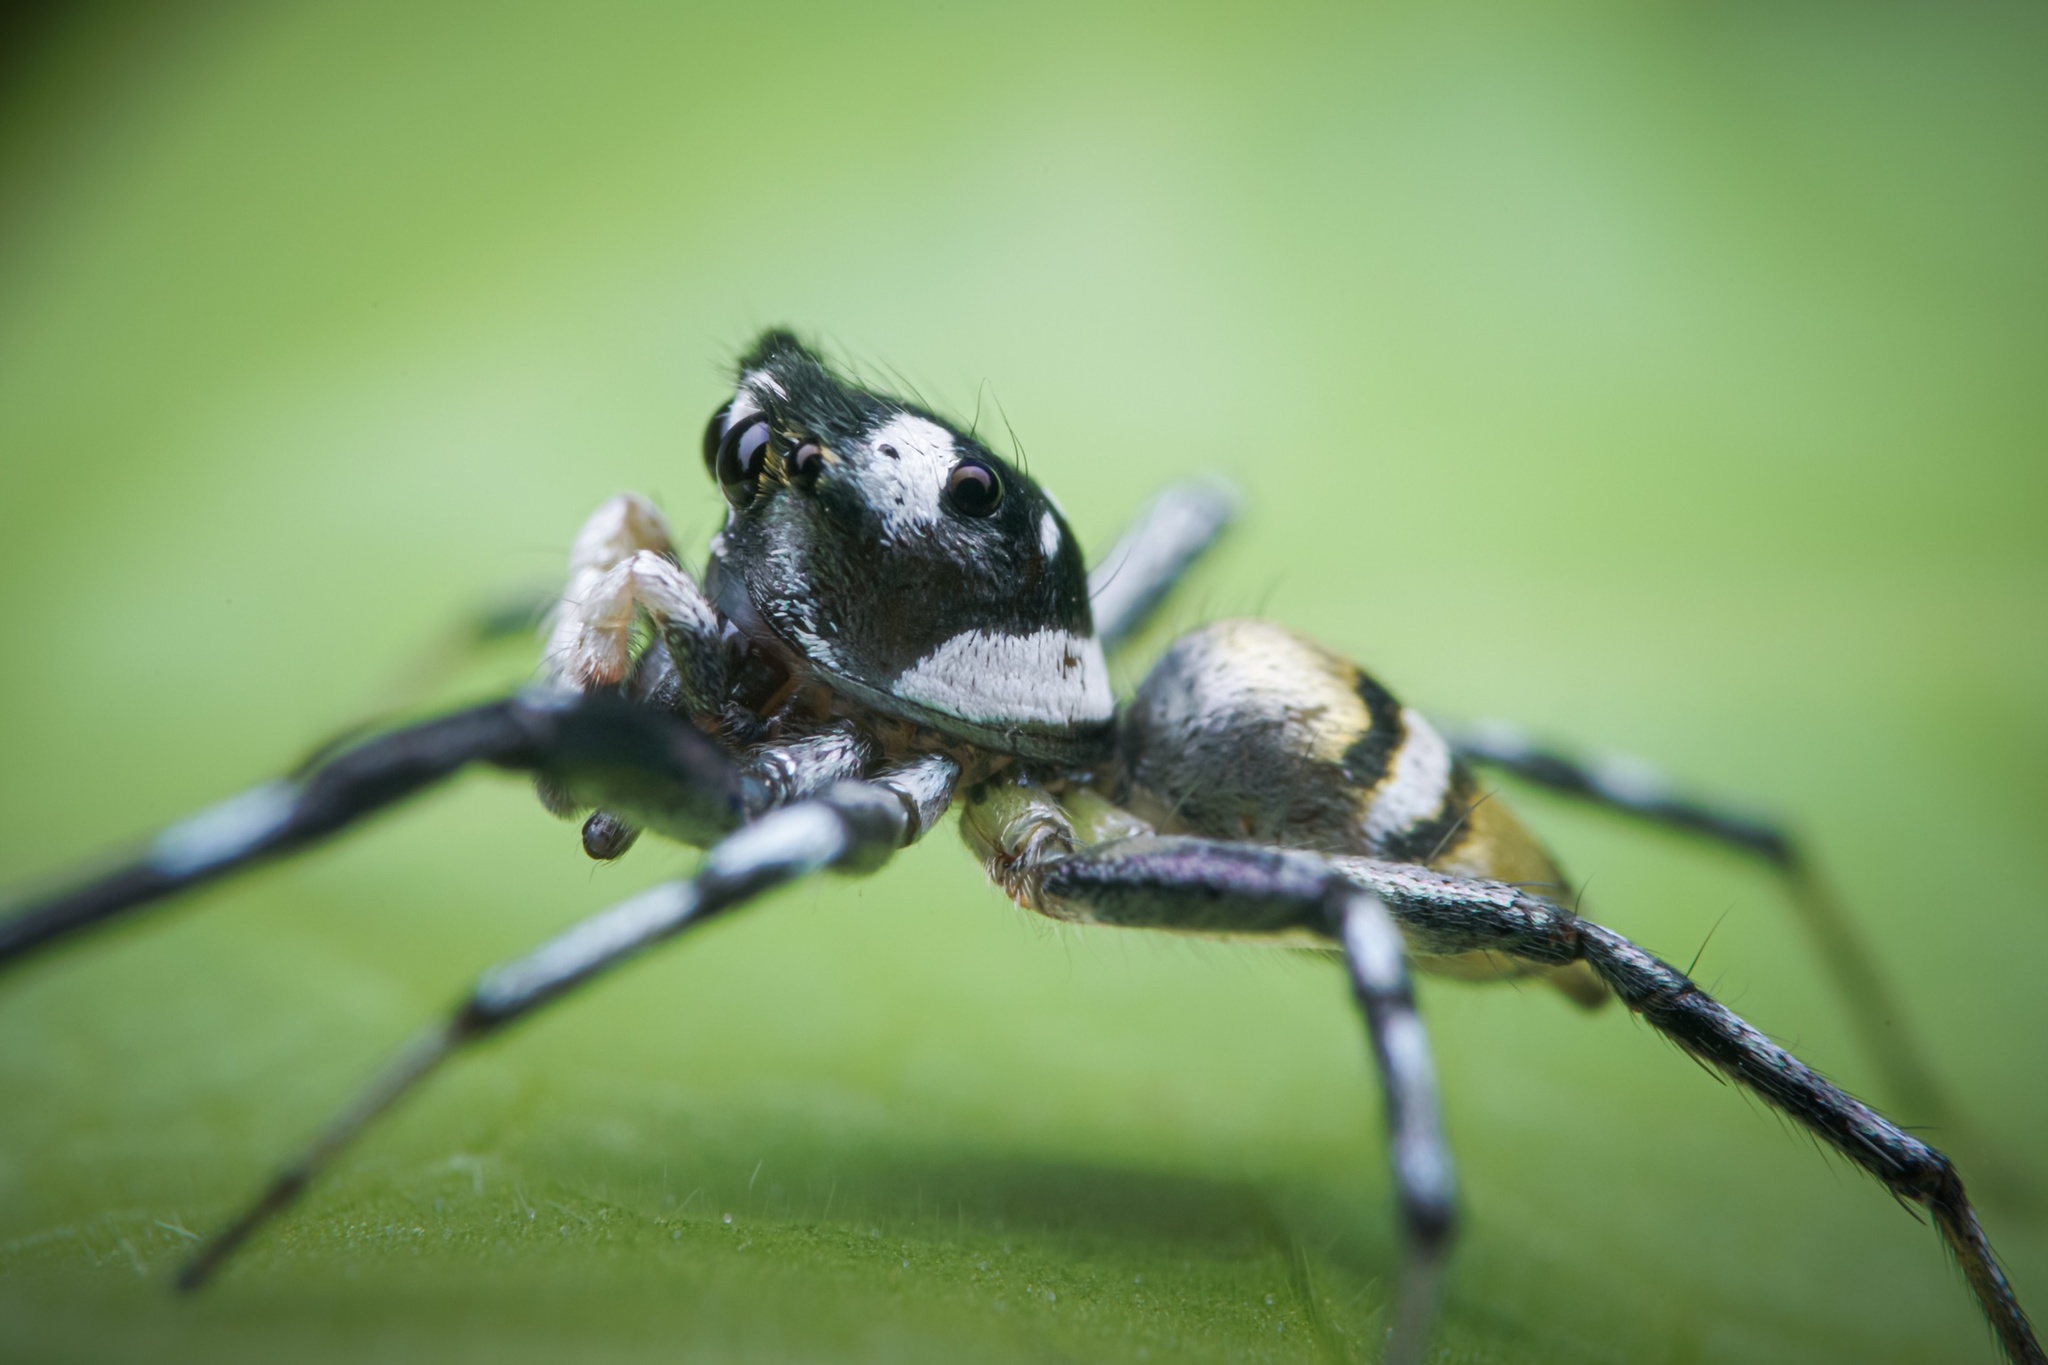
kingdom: Animalia
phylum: Arthropoda
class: Arachnida
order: Araneae
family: Salticidae
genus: Phintella
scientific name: Phintella piatensis
